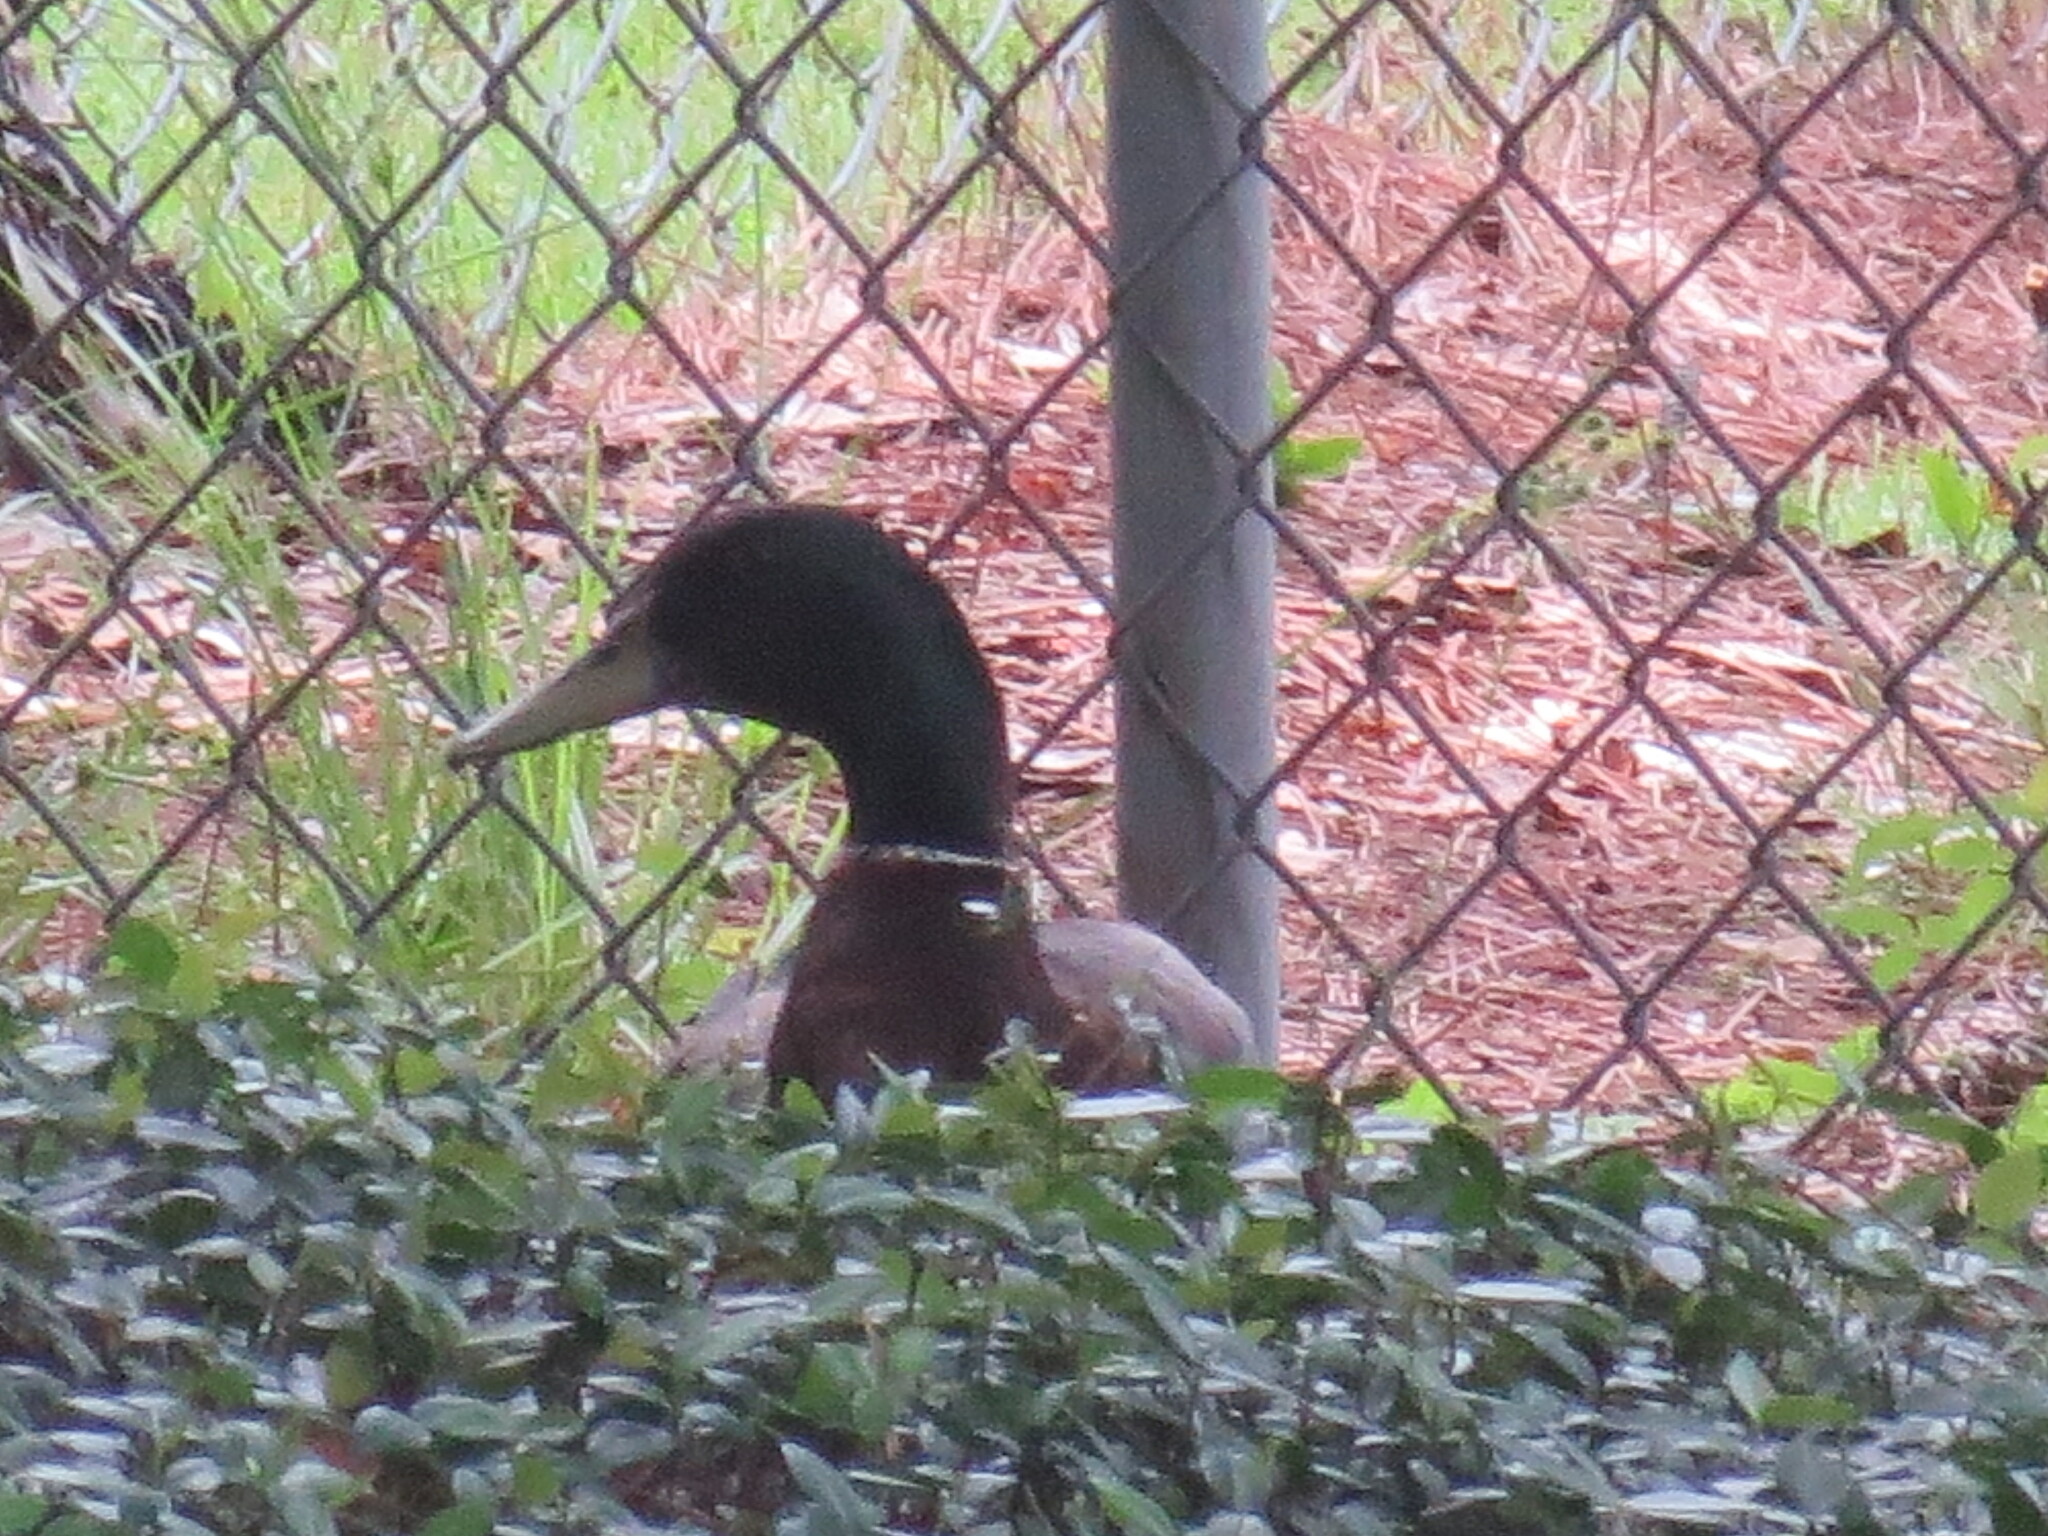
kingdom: Animalia
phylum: Chordata
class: Aves
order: Anseriformes
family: Anatidae
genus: Anas
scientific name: Anas platyrhynchos
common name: Mallard
